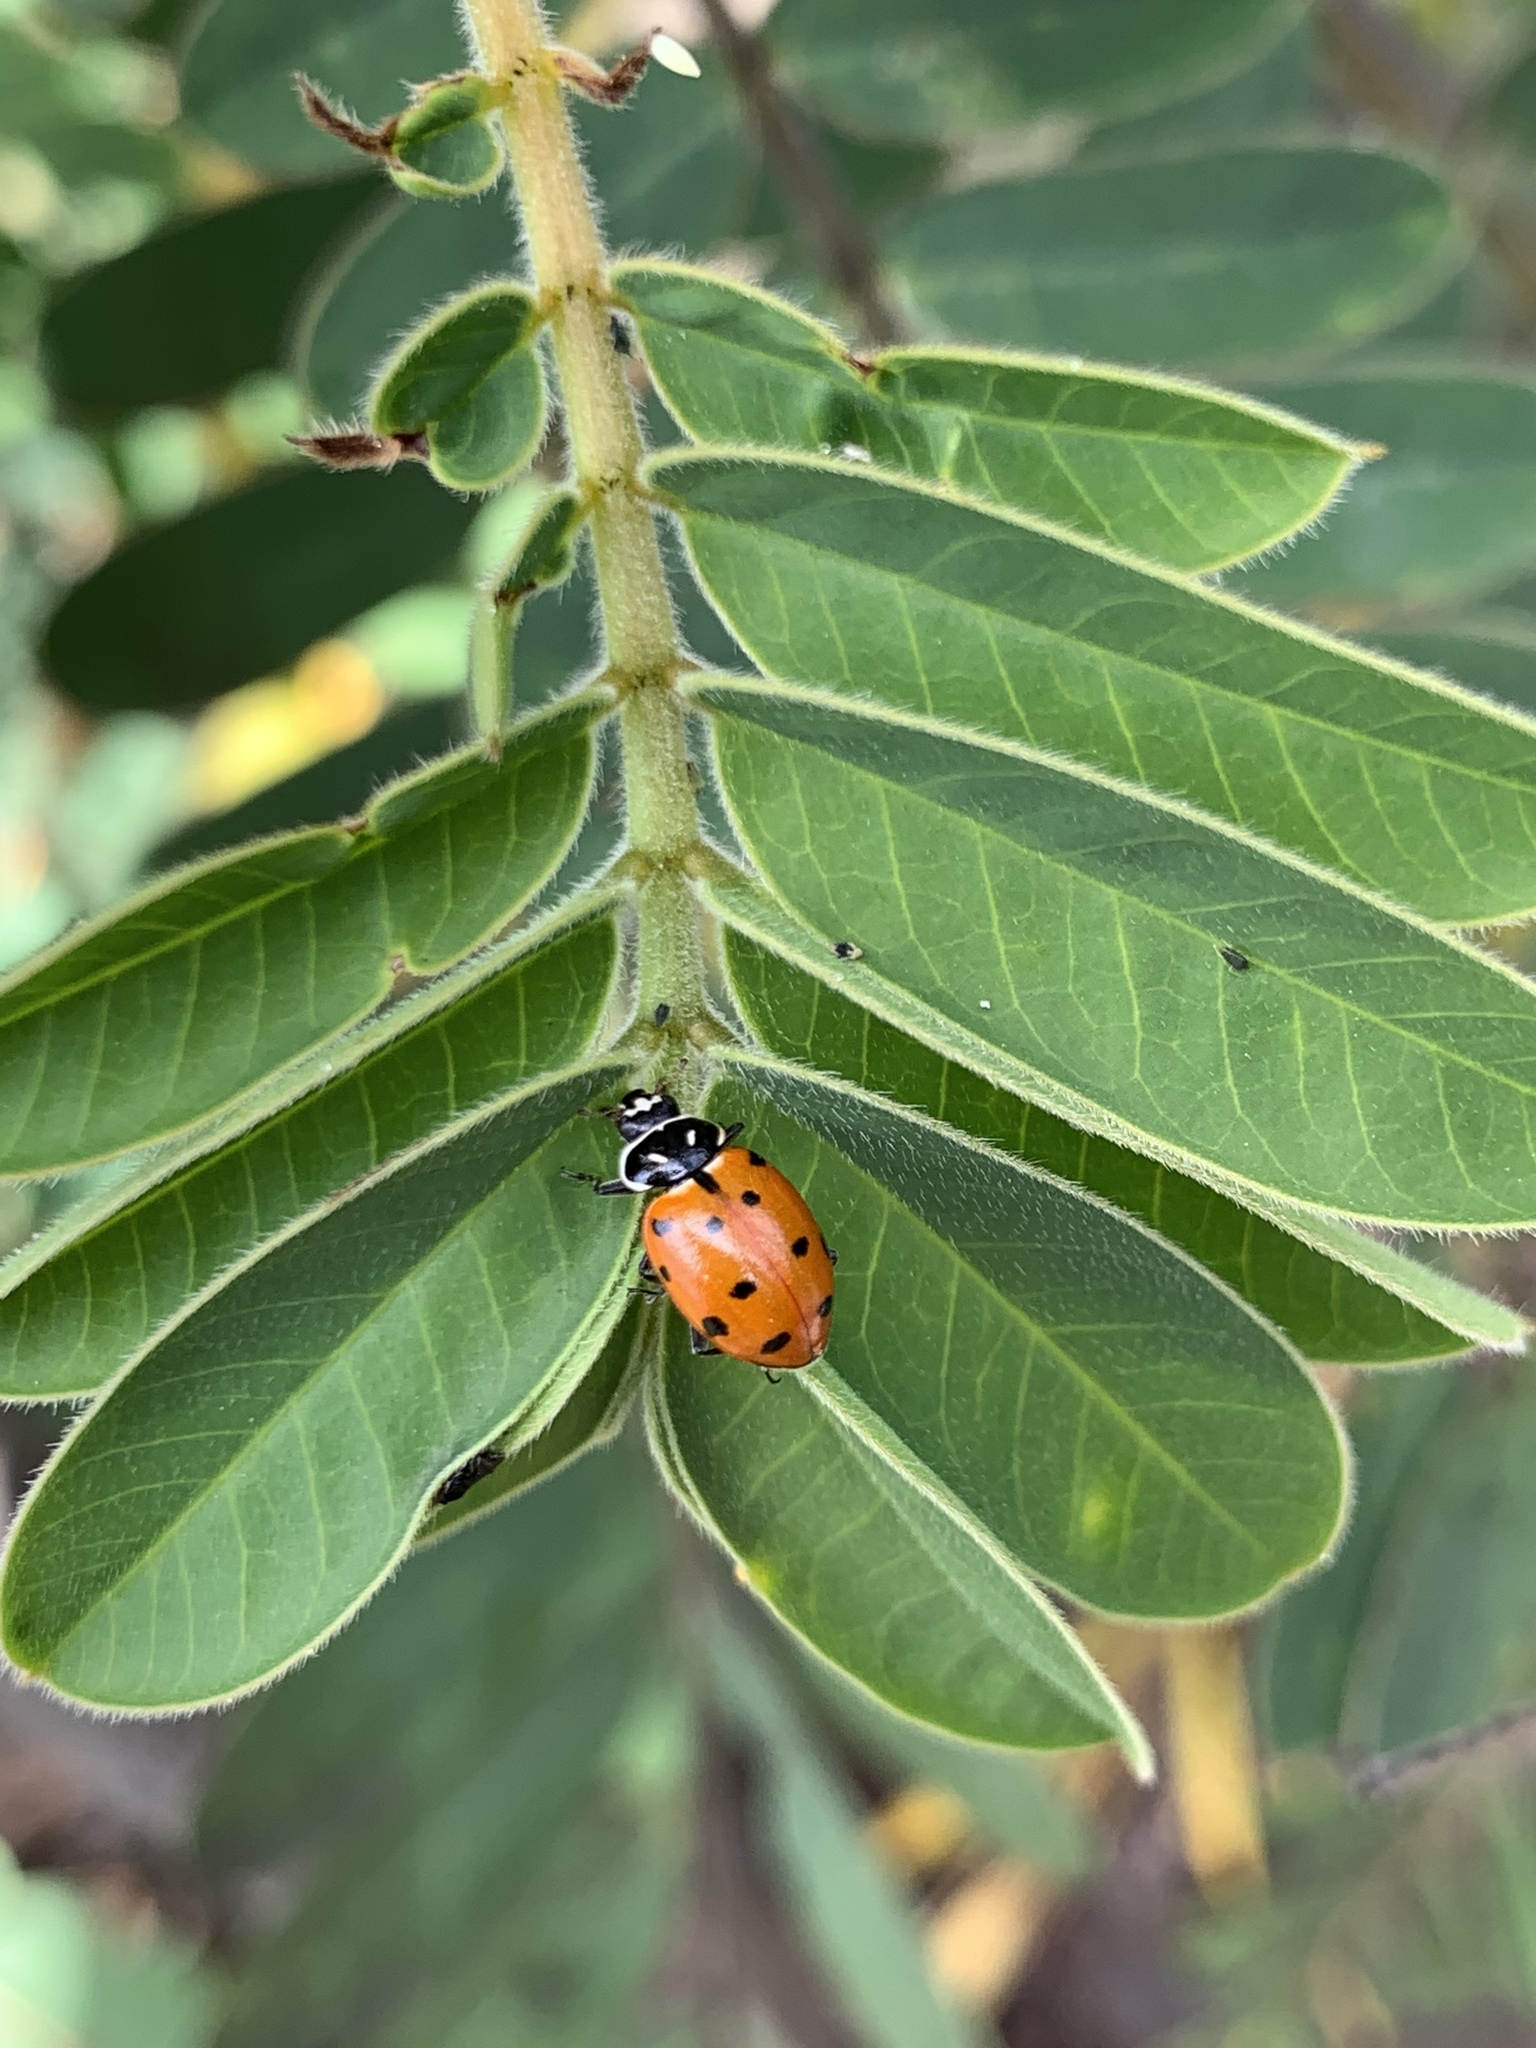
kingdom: Animalia
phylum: Arthropoda
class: Insecta
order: Coleoptera
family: Coccinellidae
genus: Hippodamia
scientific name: Hippodamia convergens
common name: Convergent lady beetle
